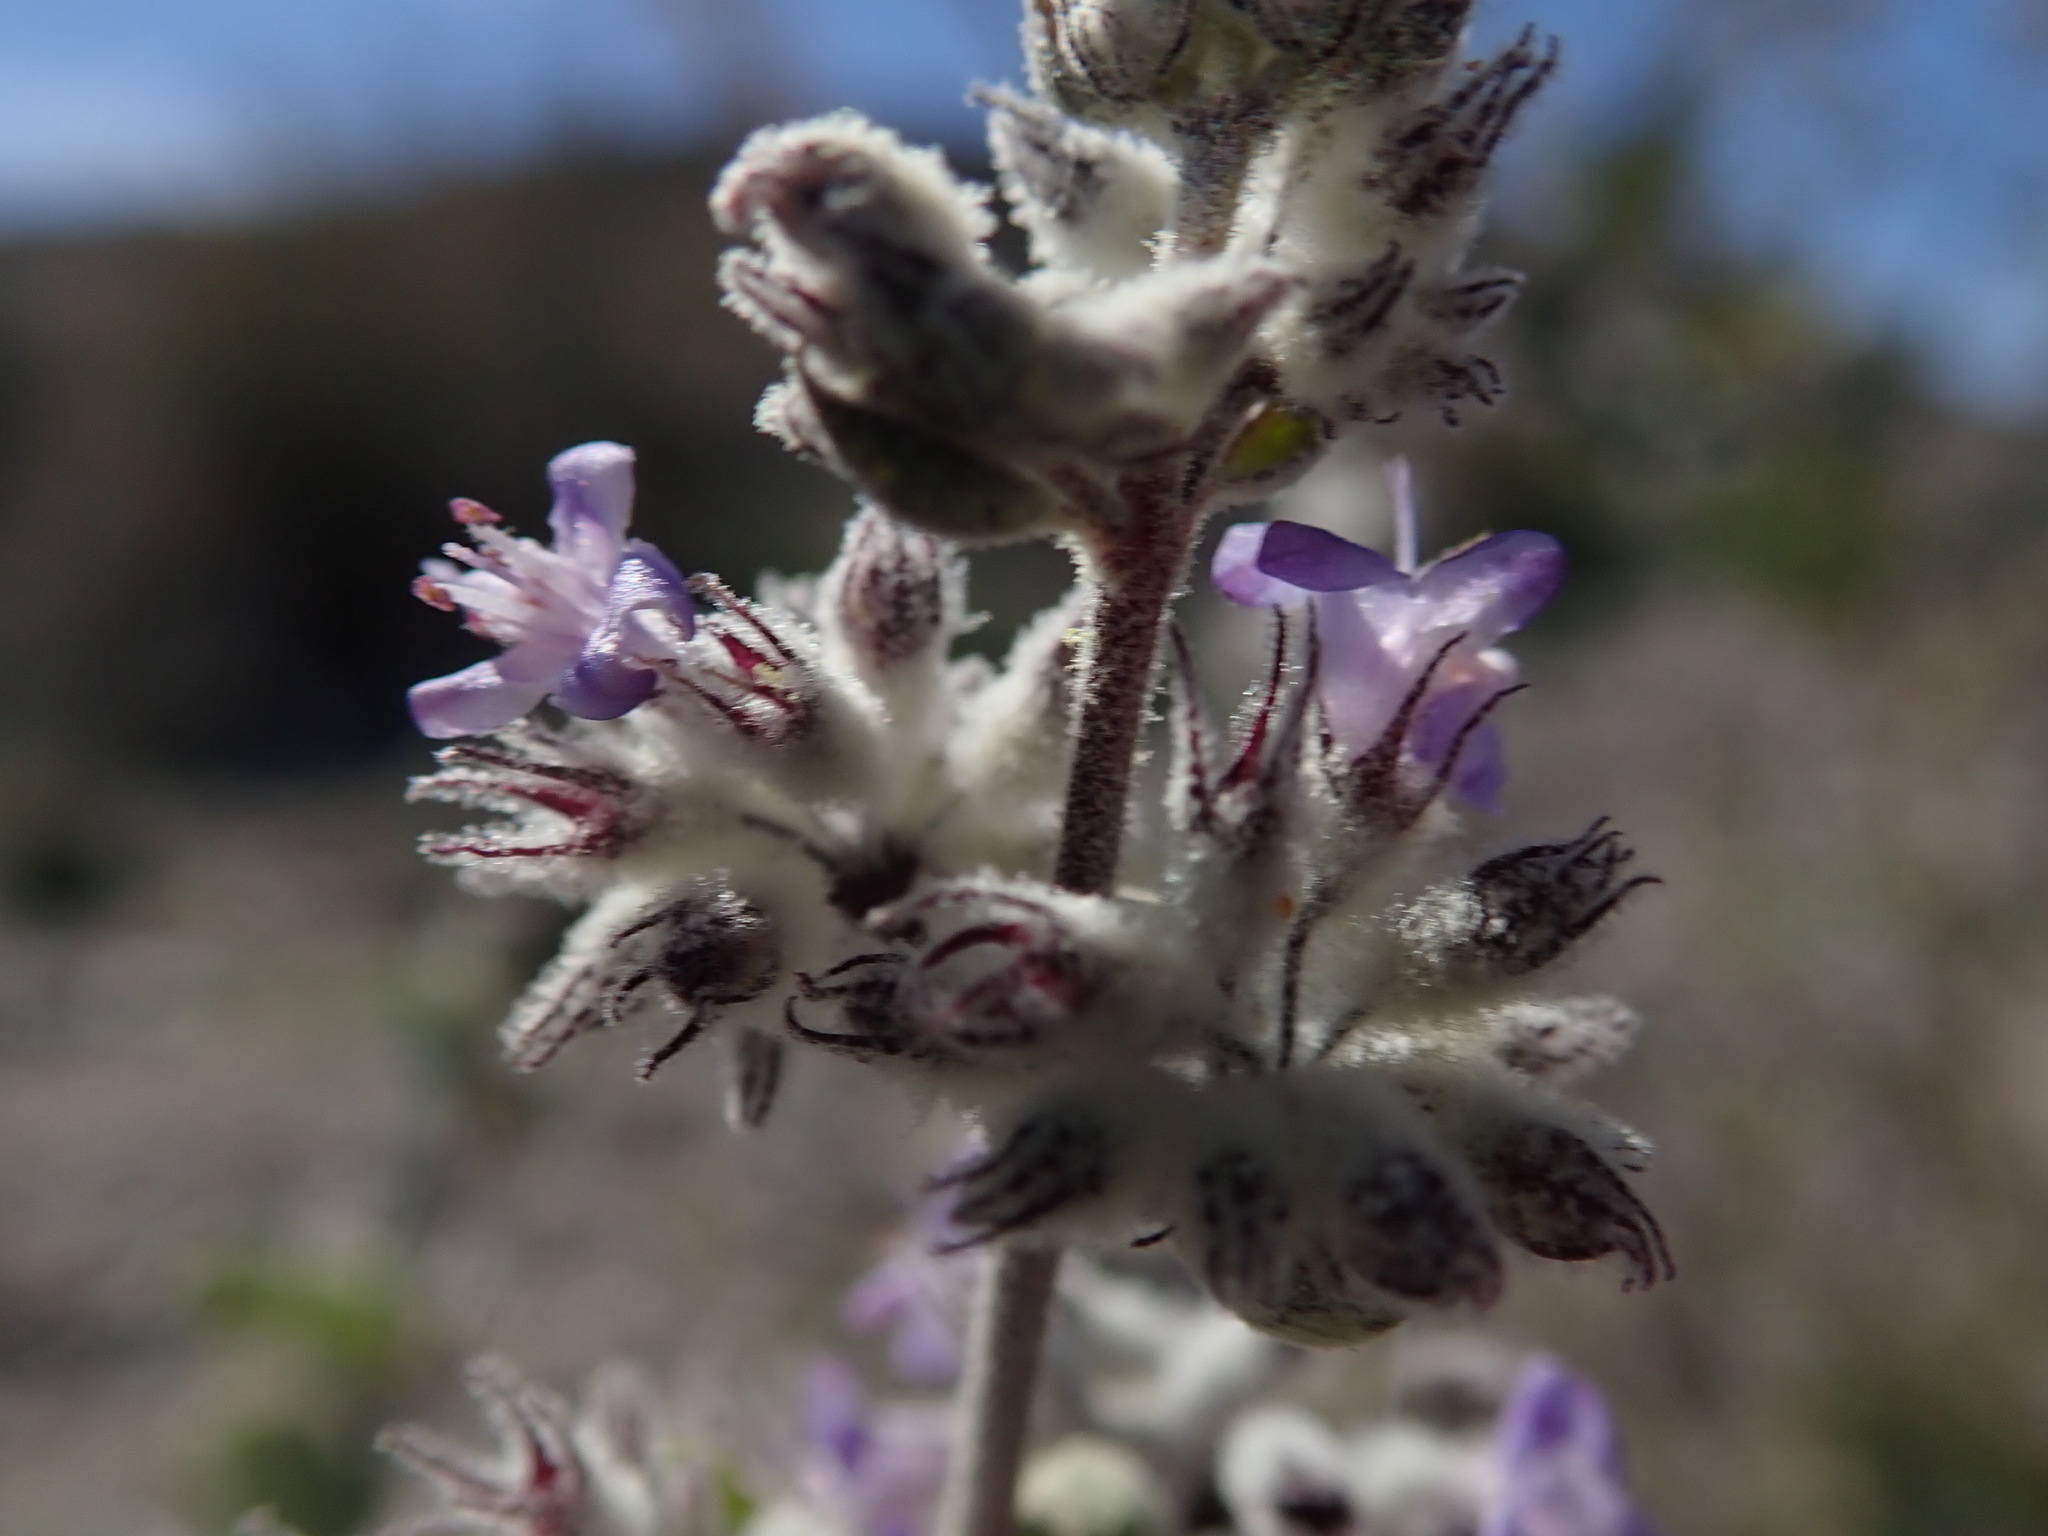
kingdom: Plantae
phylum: Tracheophyta
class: Magnoliopsida
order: Lamiales
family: Lamiaceae
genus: Condea
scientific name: Condea emoryi
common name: Chia
